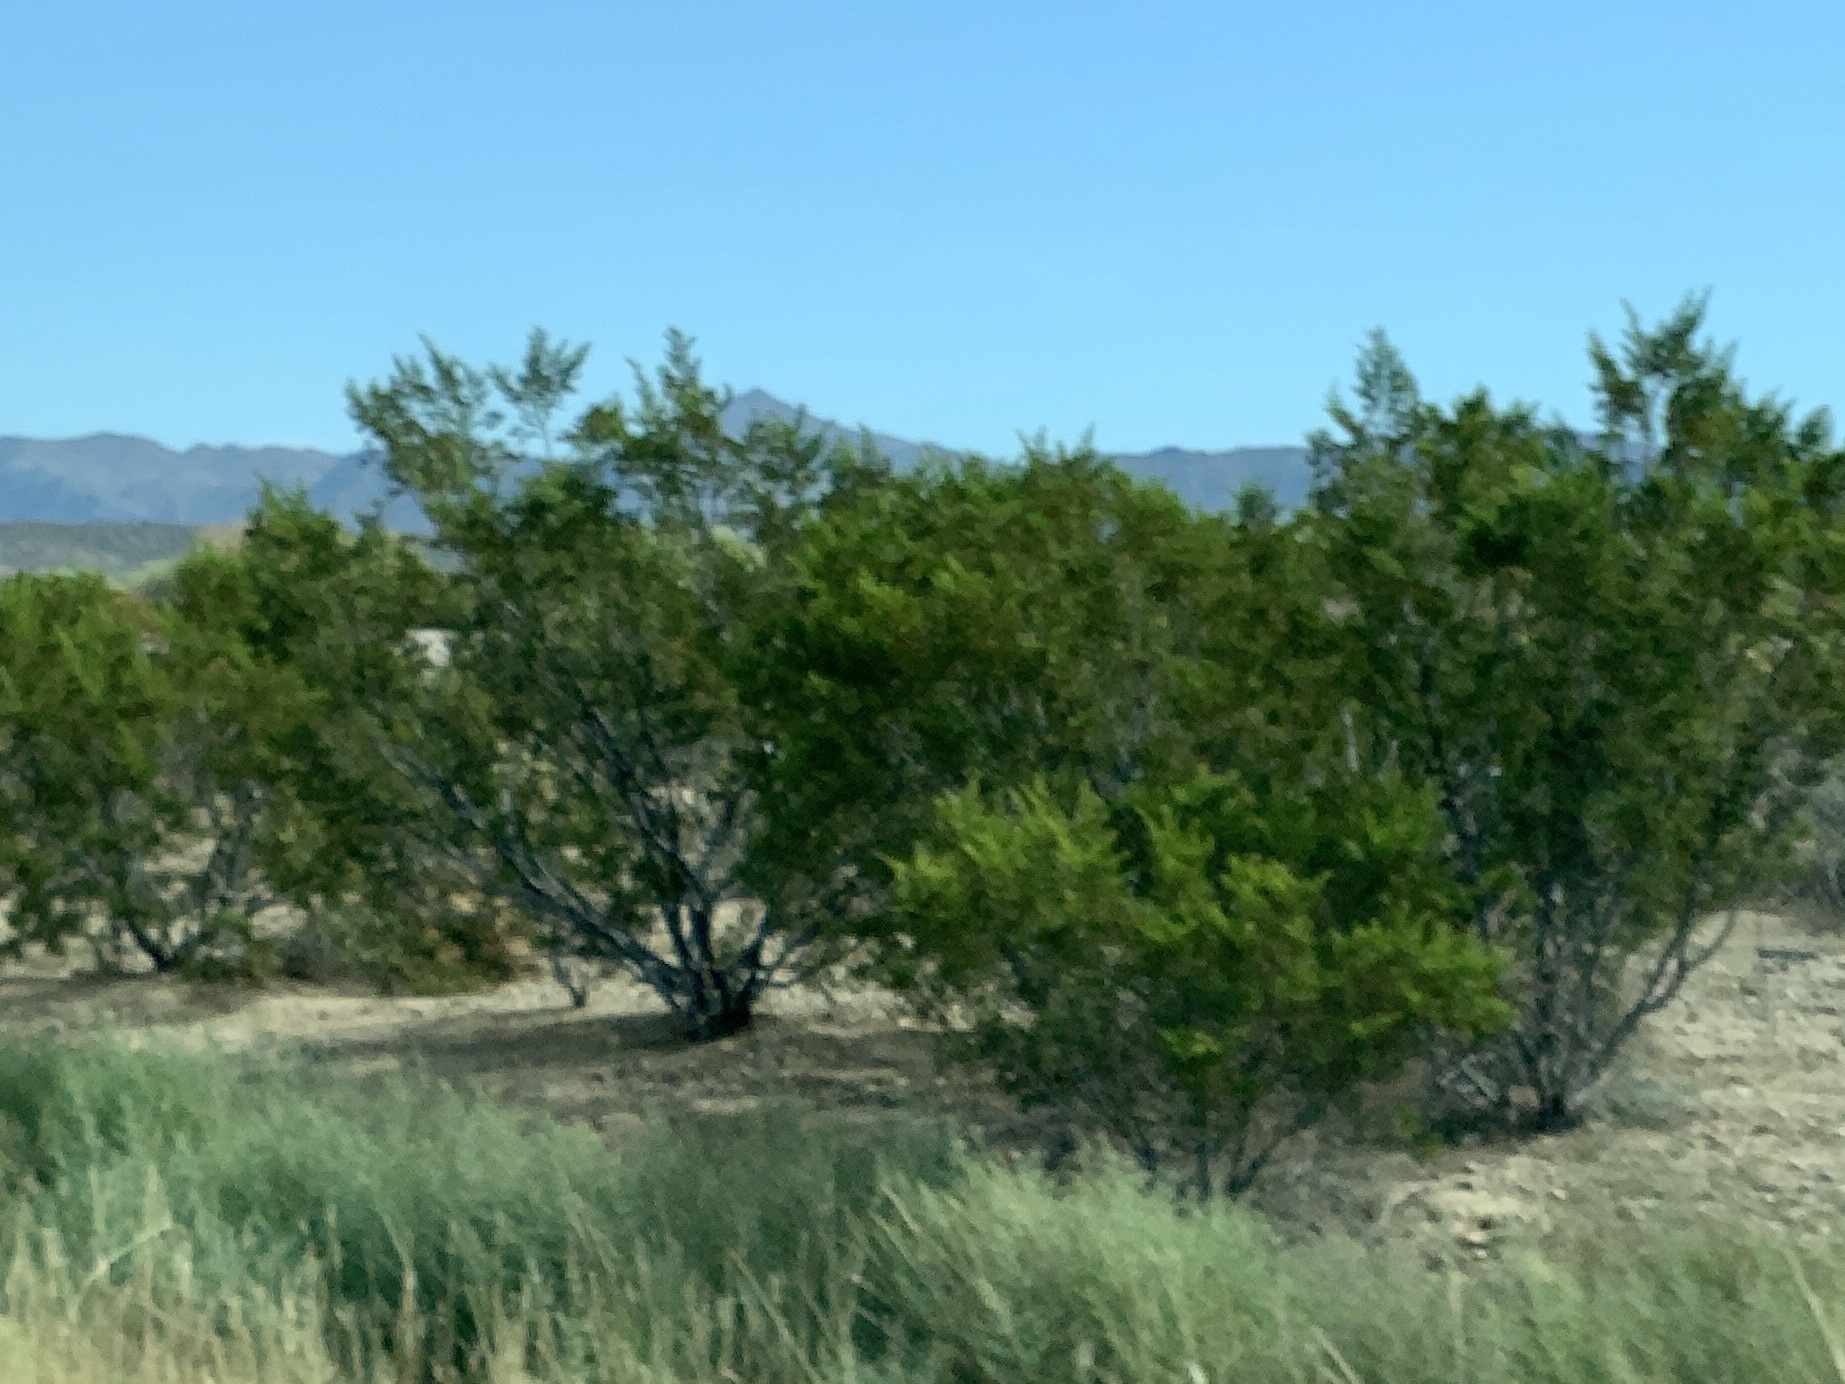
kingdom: Plantae
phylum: Tracheophyta
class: Magnoliopsida
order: Zygophyllales
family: Zygophyllaceae
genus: Larrea
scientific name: Larrea tridentata
